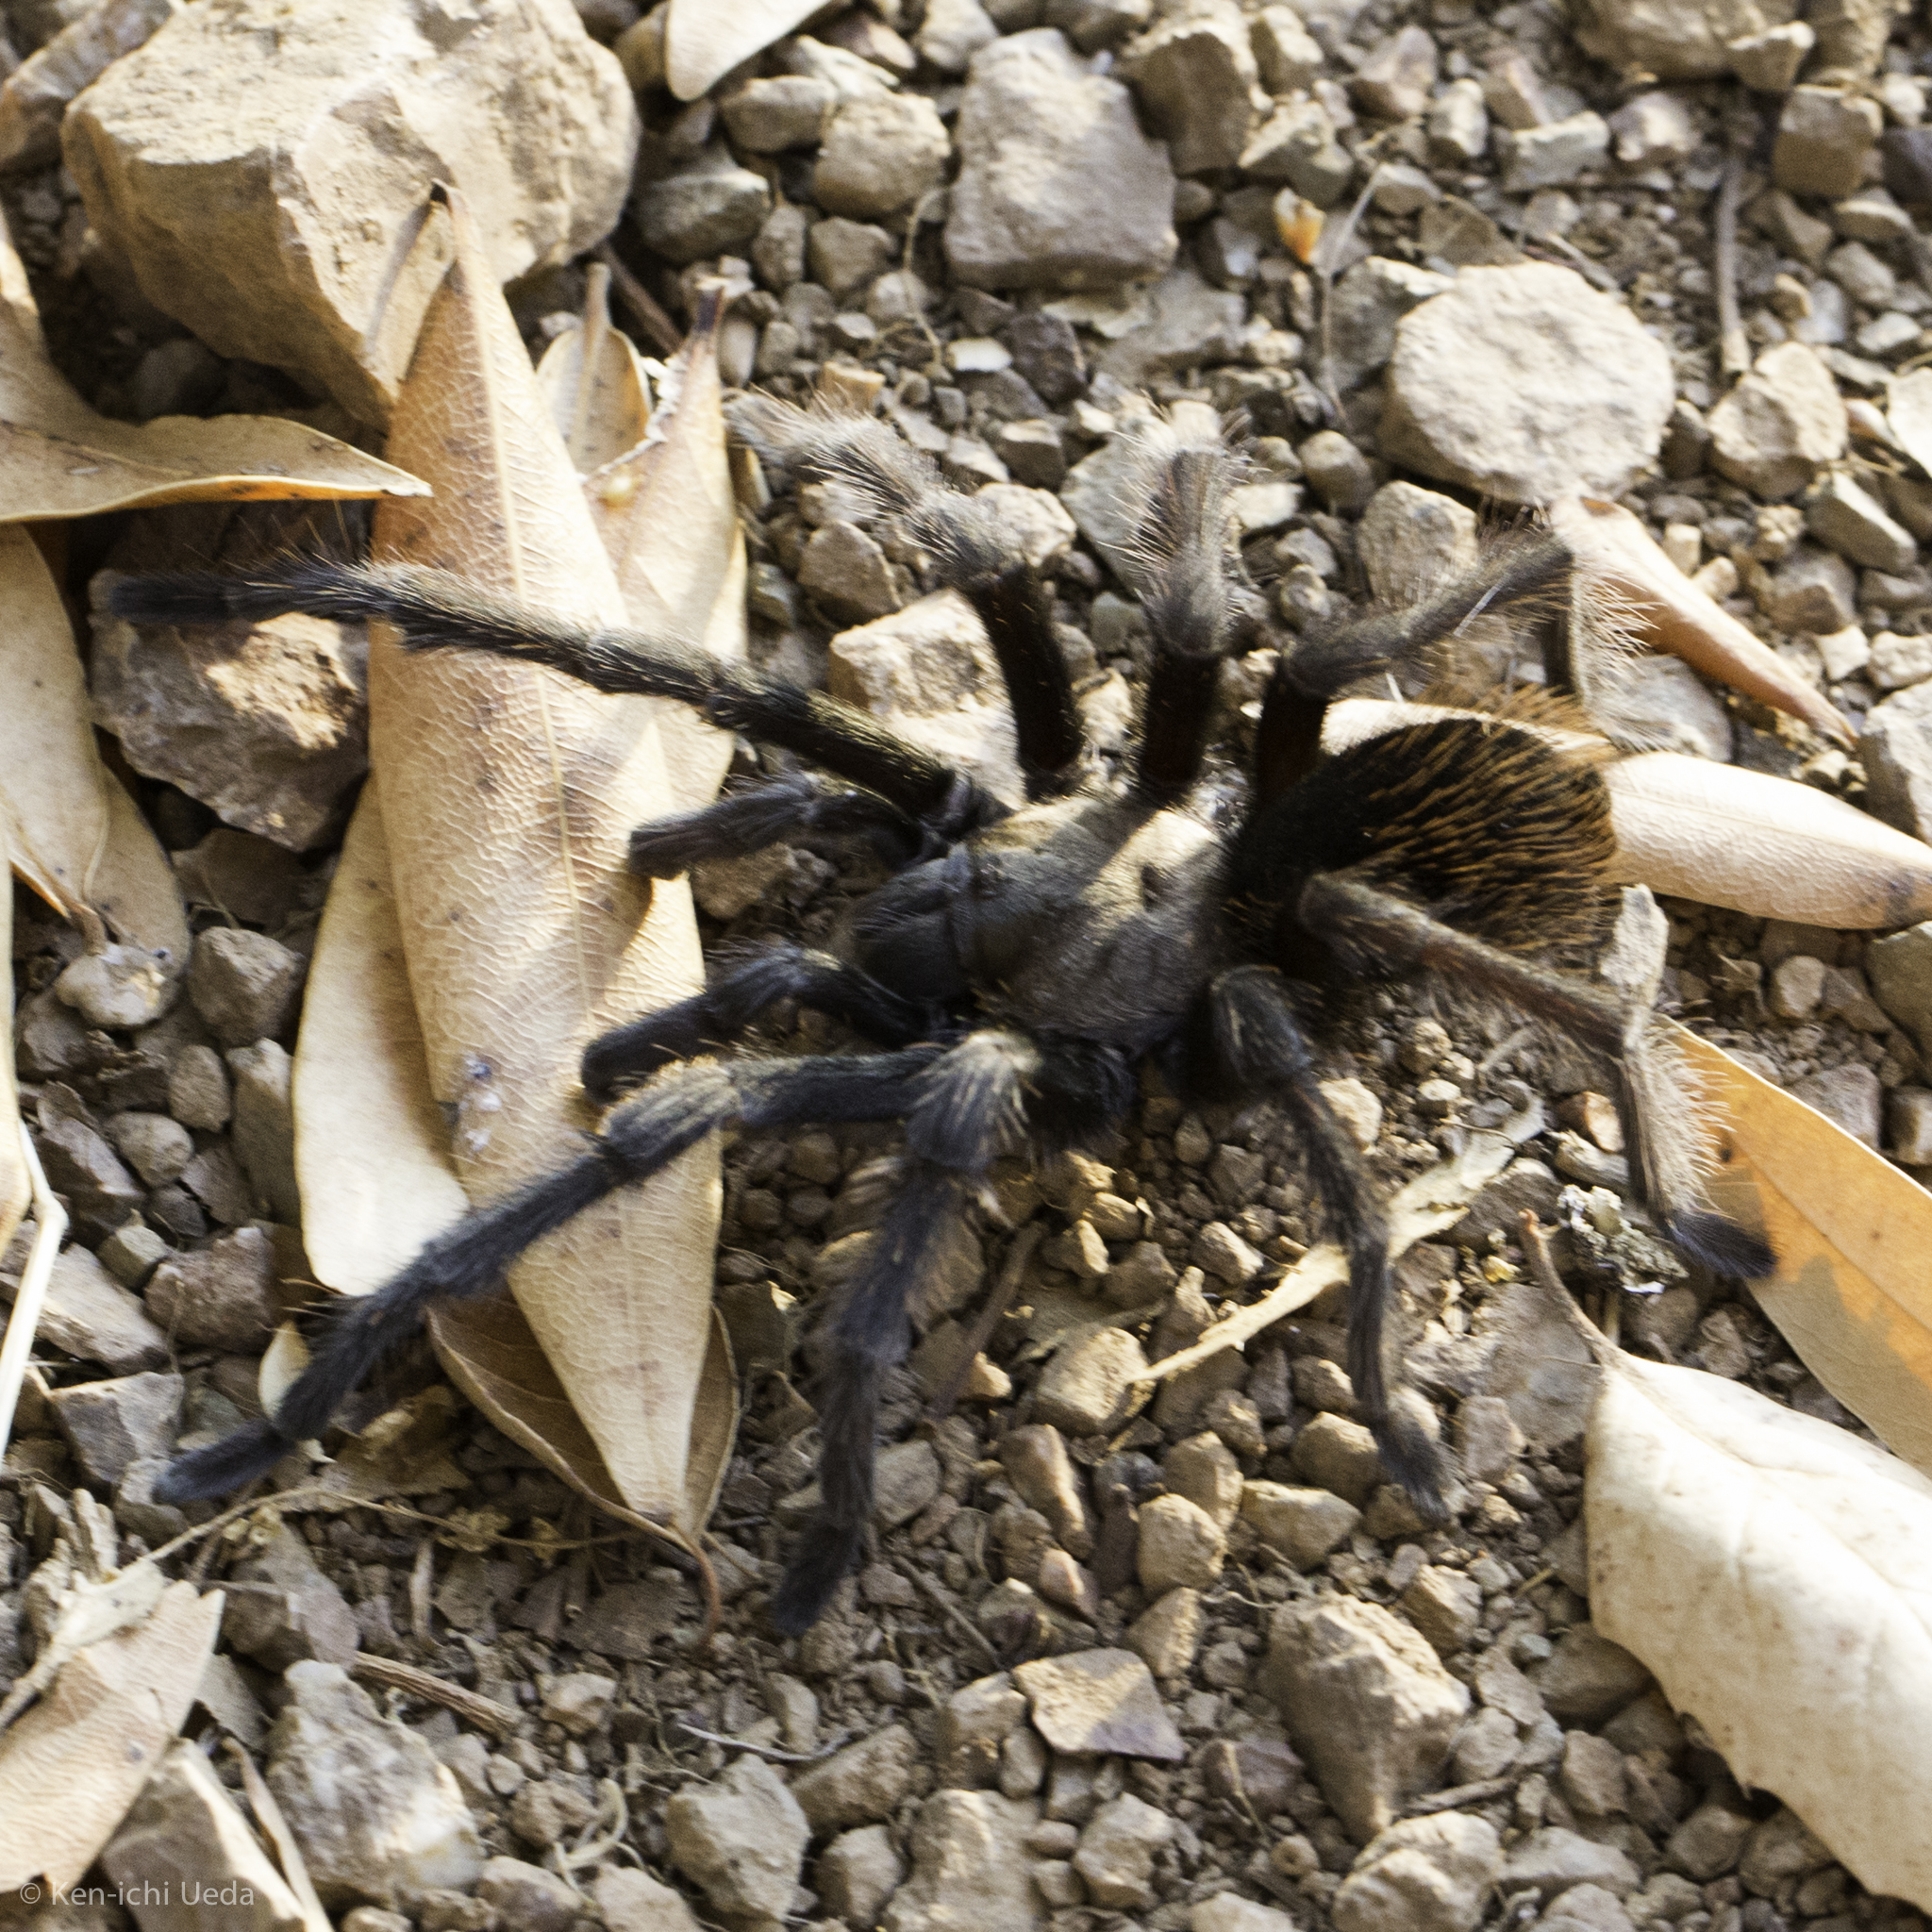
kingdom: Animalia
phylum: Arthropoda
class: Arachnida
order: Araneae
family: Theraphosidae
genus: Aphonopelma
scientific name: Aphonopelma iodius
